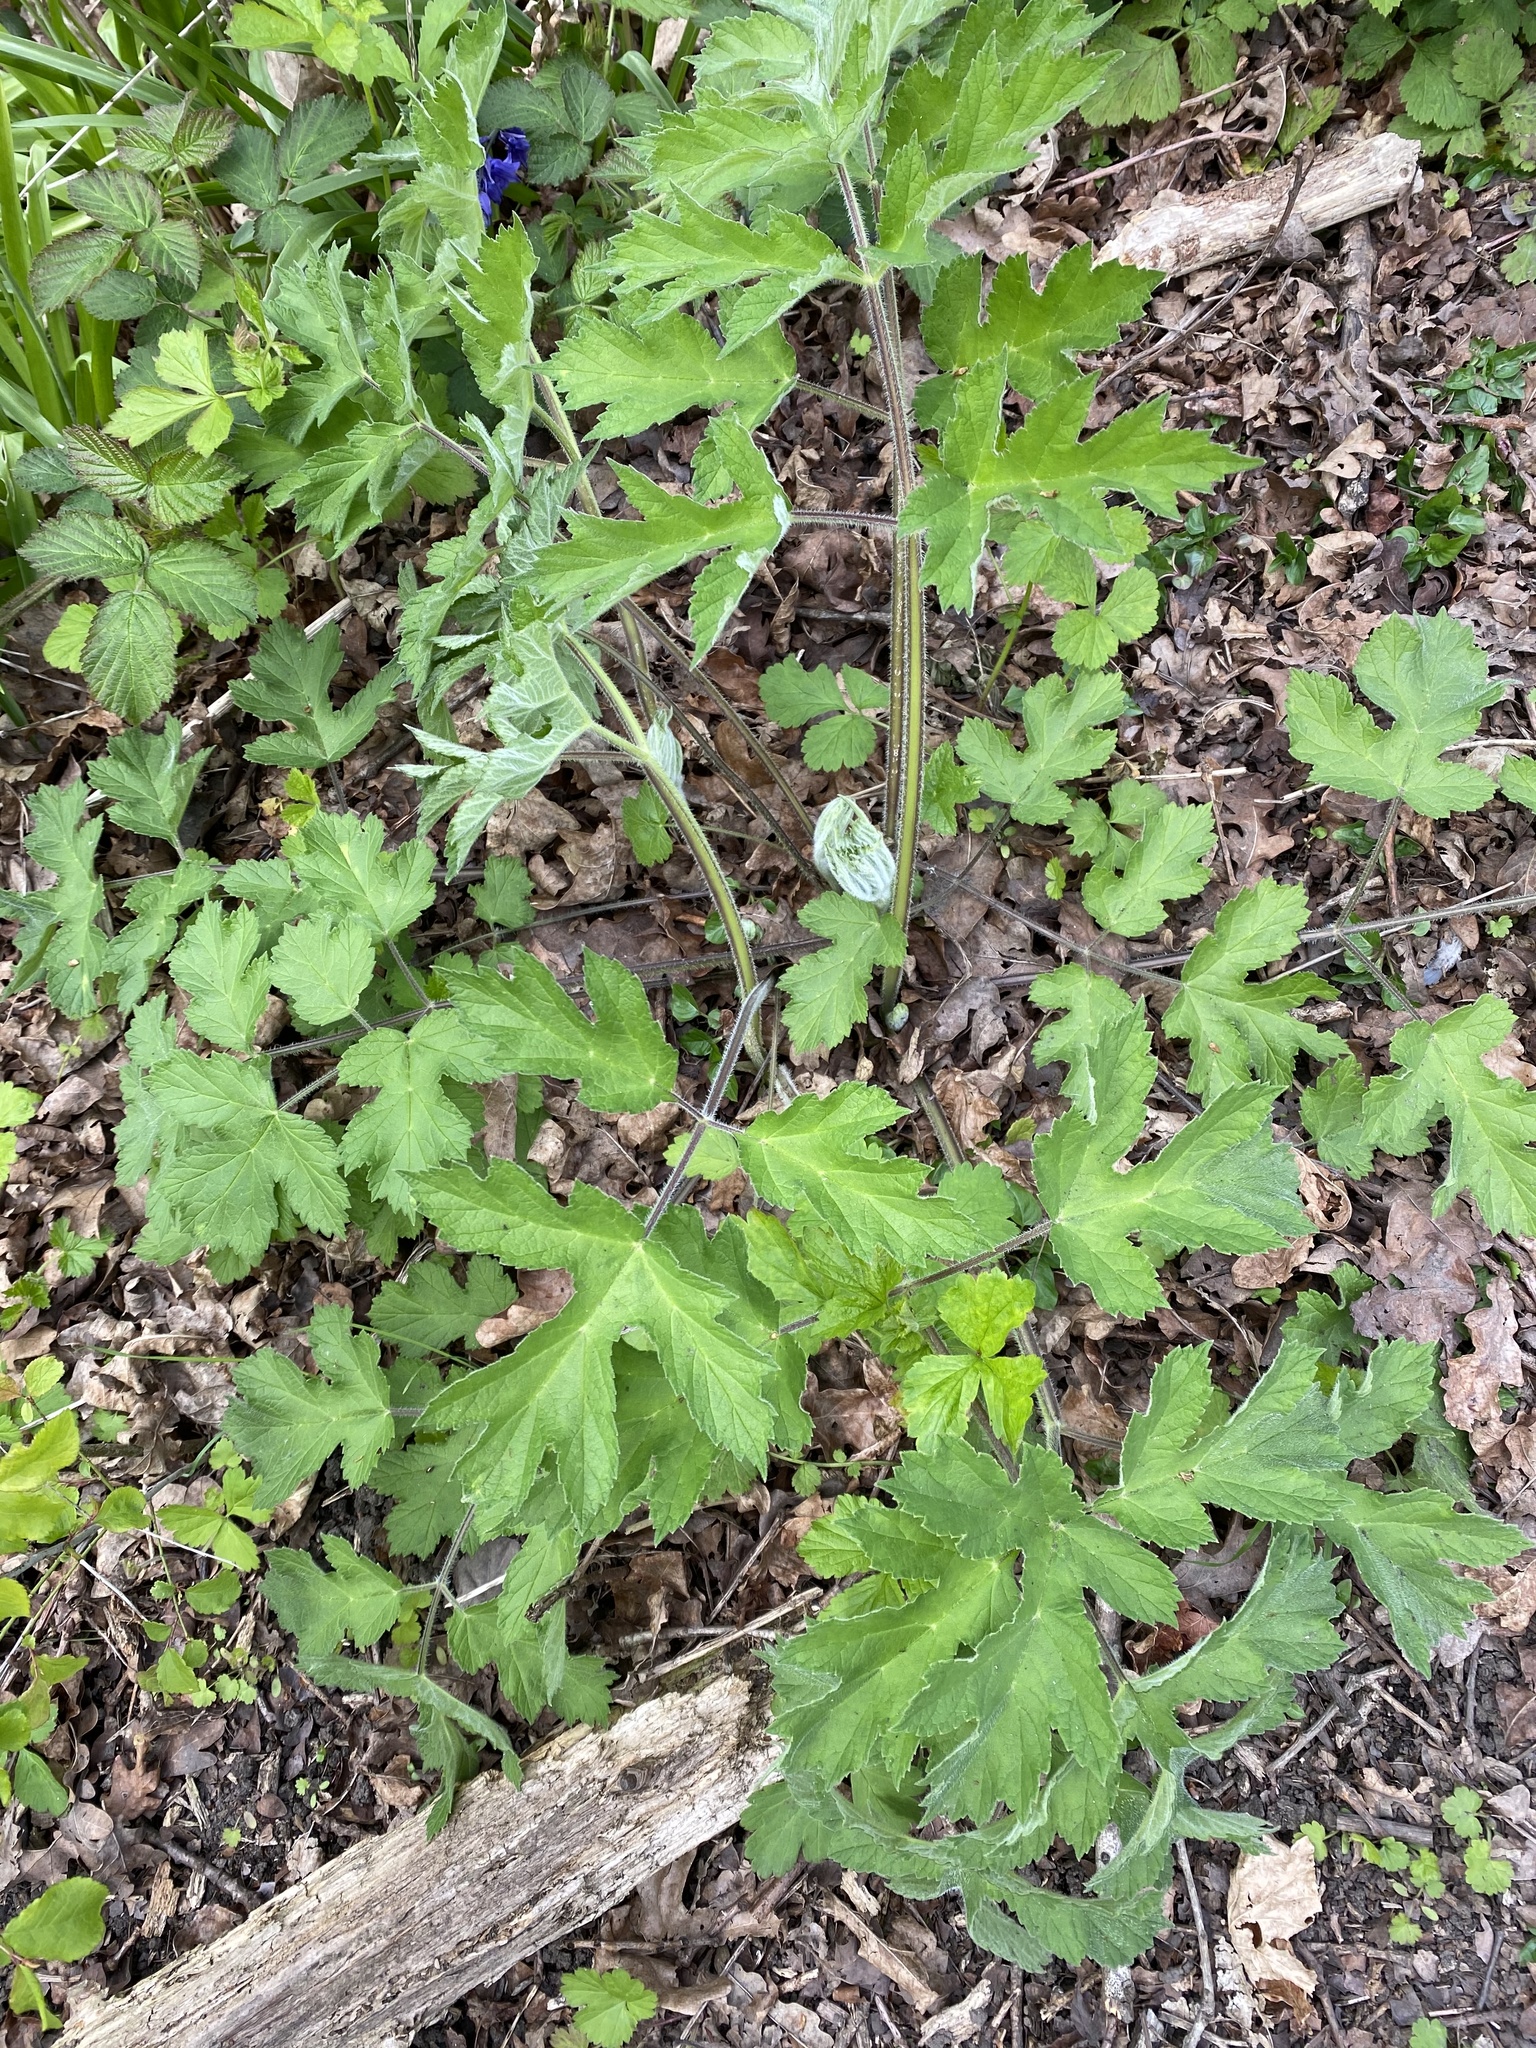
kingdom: Plantae
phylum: Tracheophyta
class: Magnoliopsida
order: Apiales
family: Apiaceae
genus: Heracleum
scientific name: Heracleum sphondylium
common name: Hogweed
